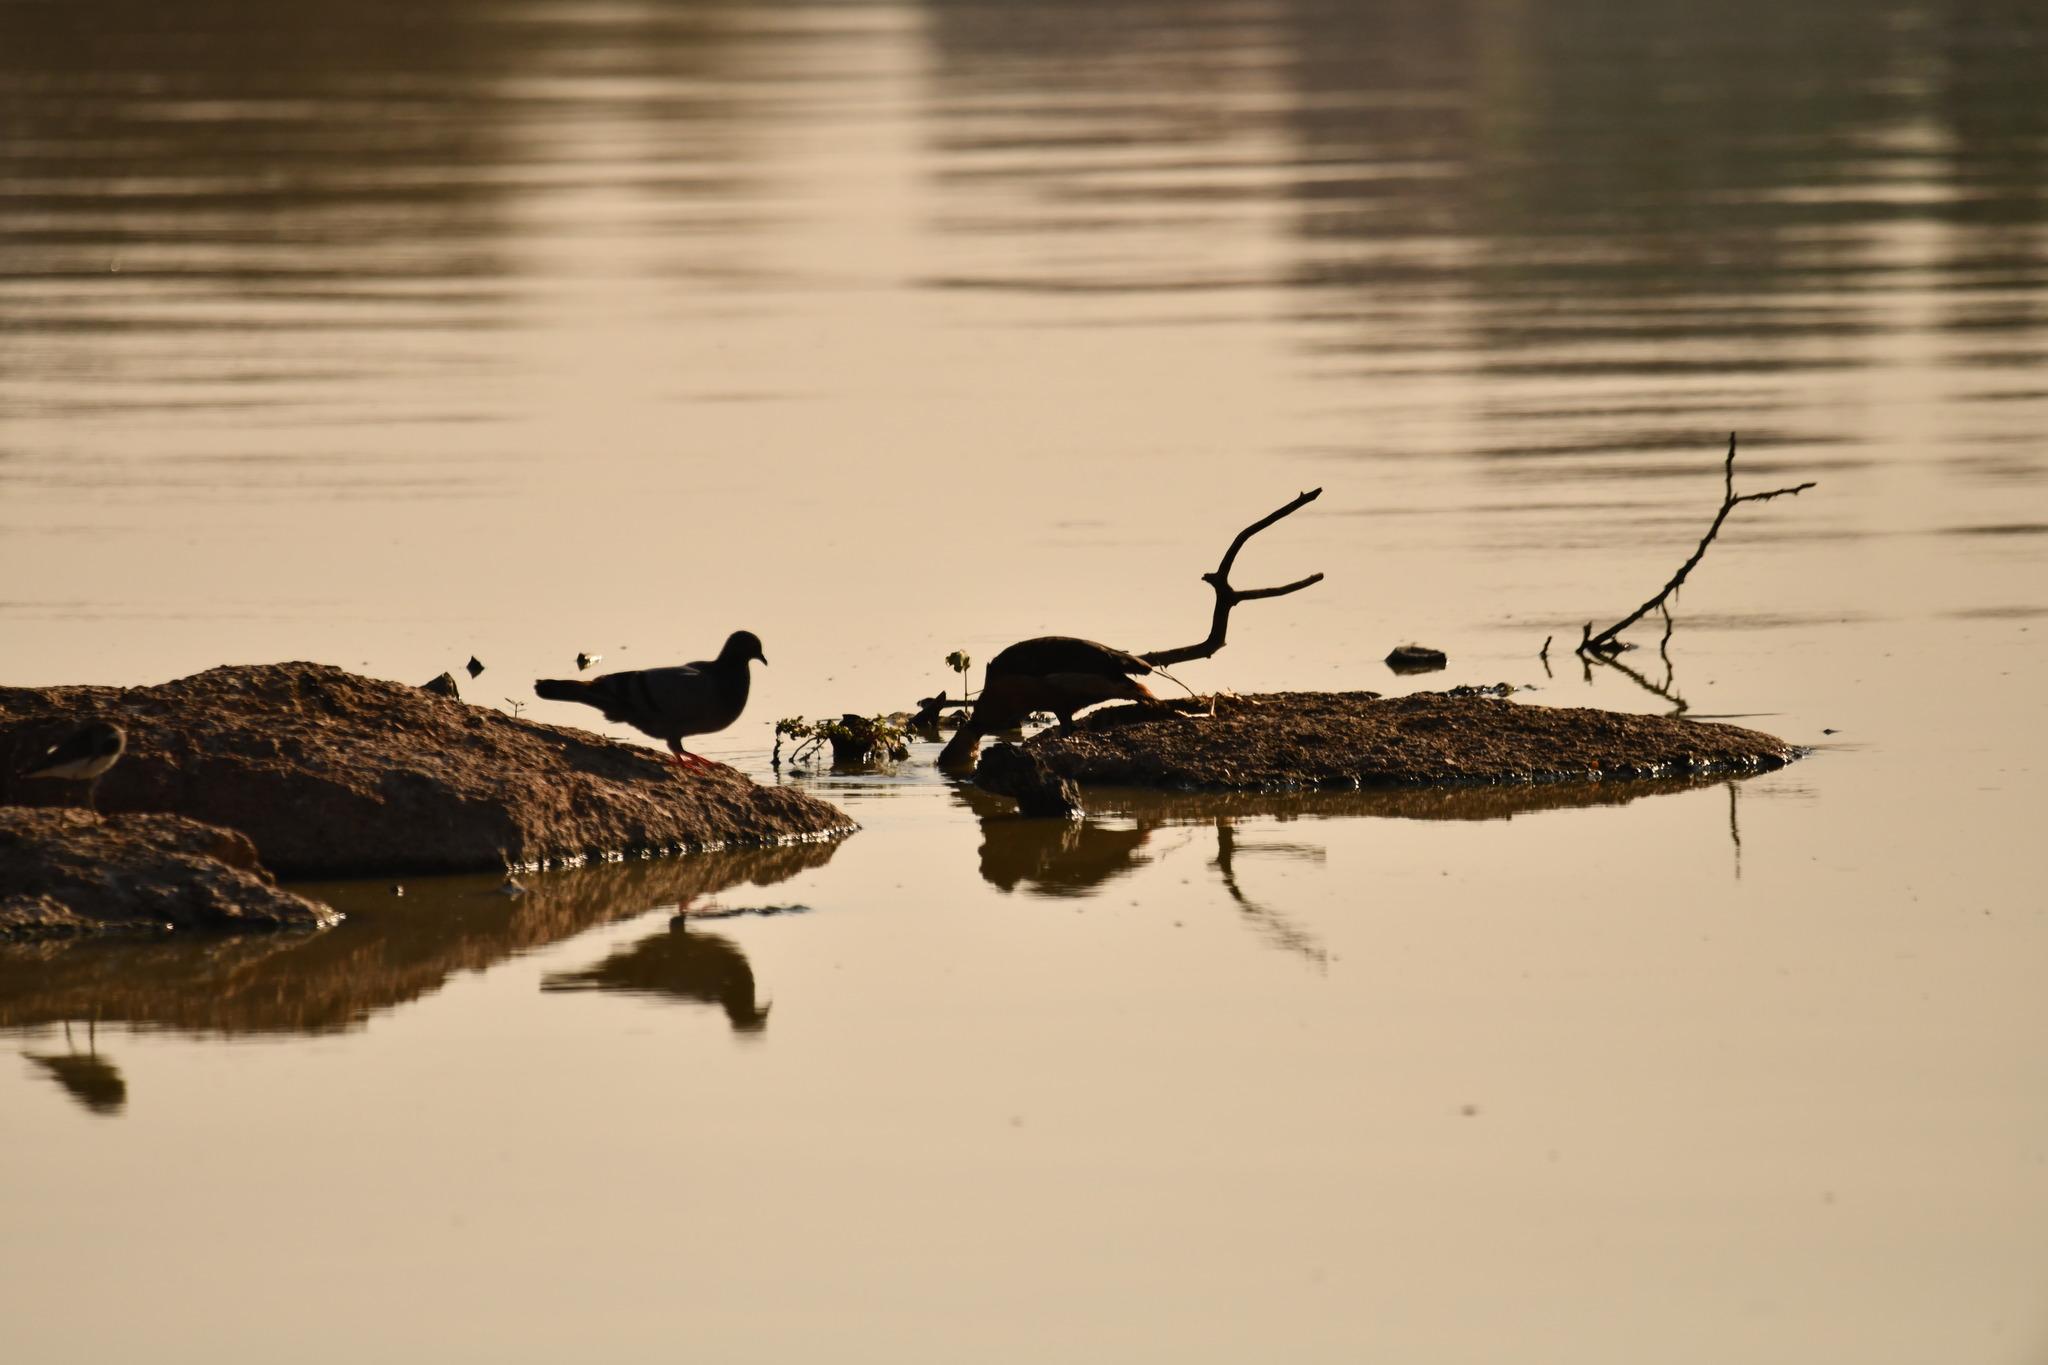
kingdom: Animalia
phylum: Chordata
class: Aves
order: Columbiformes
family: Columbidae
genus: Columba
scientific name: Columba livia
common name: Rock pigeon
